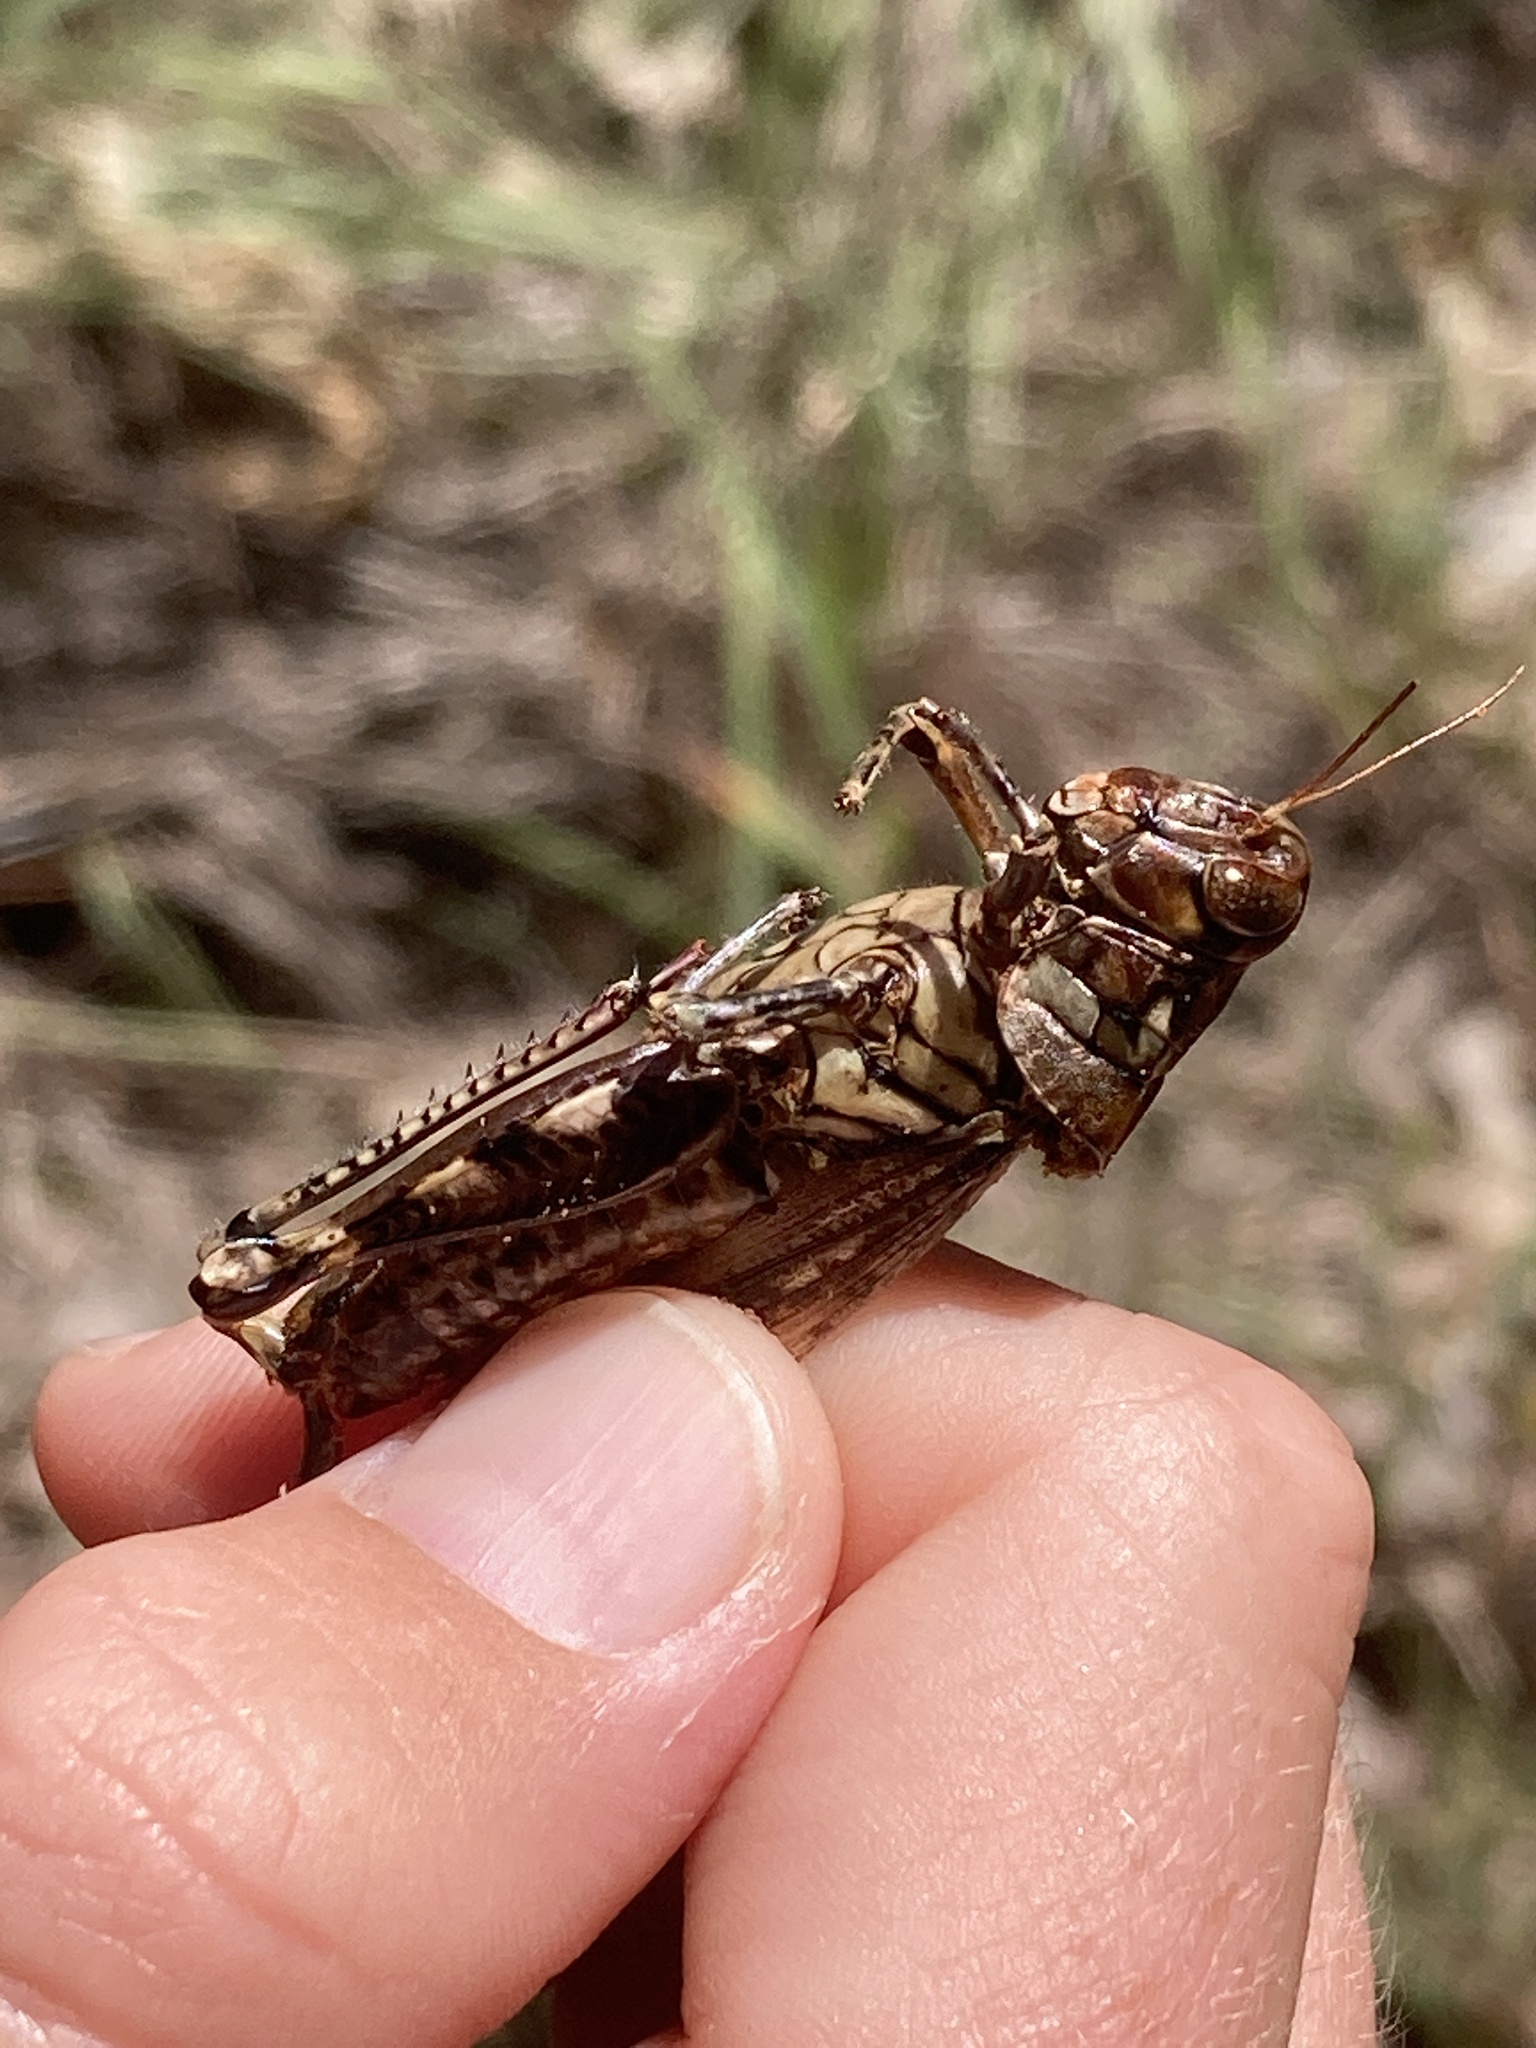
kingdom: Animalia
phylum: Arthropoda
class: Insecta
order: Orthoptera
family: Acrididae
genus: Melanoplus
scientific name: Melanoplus macclungi
